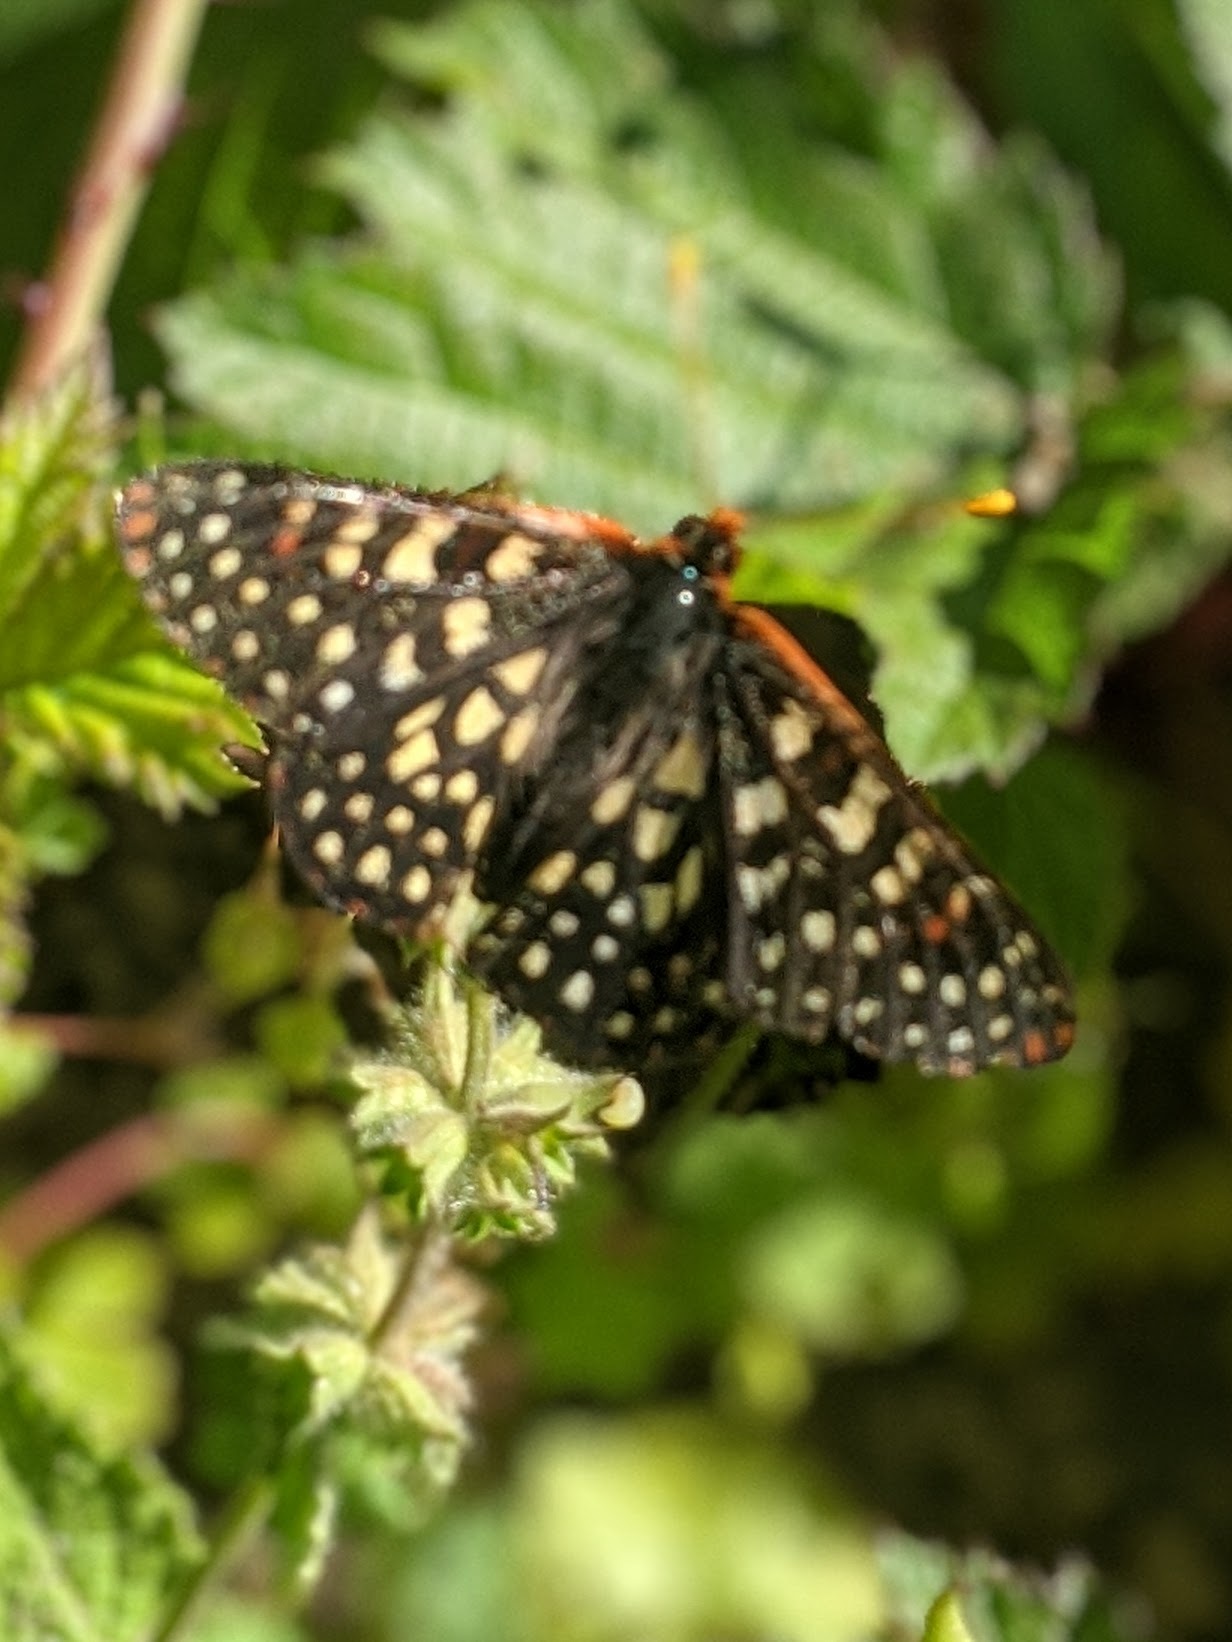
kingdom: Animalia
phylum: Arthropoda
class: Insecta
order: Lepidoptera
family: Nymphalidae
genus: Occidryas
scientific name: Occidryas chalcedona
